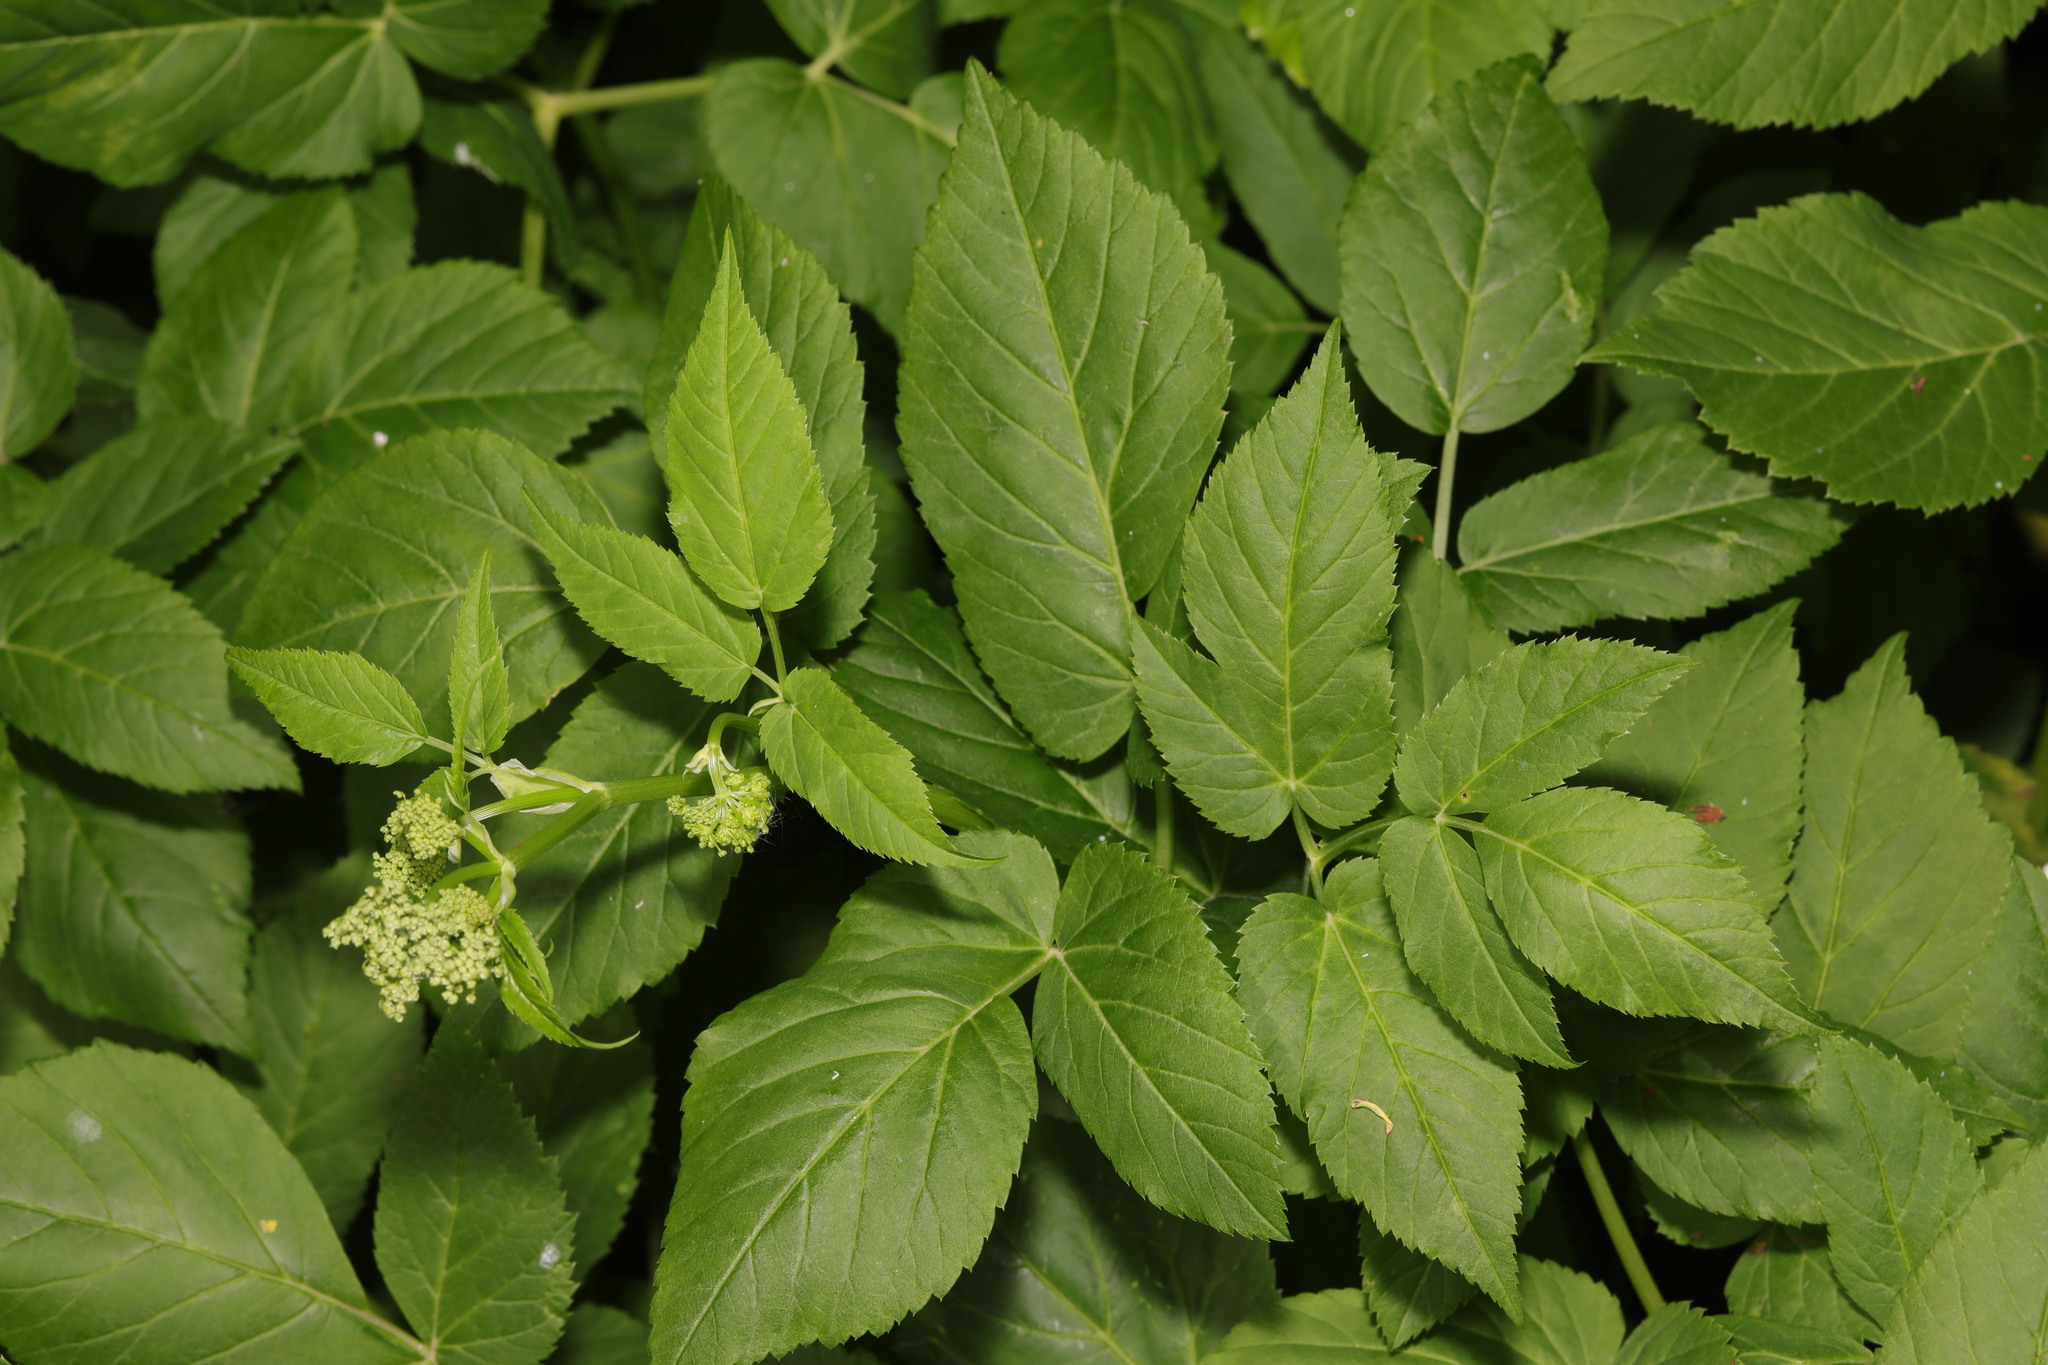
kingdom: Plantae
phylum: Tracheophyta
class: Magnoliopsida
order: Apiales
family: Apiaceae
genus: Aegopodium
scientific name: Aegopodium podagraria
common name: Ground-elder
